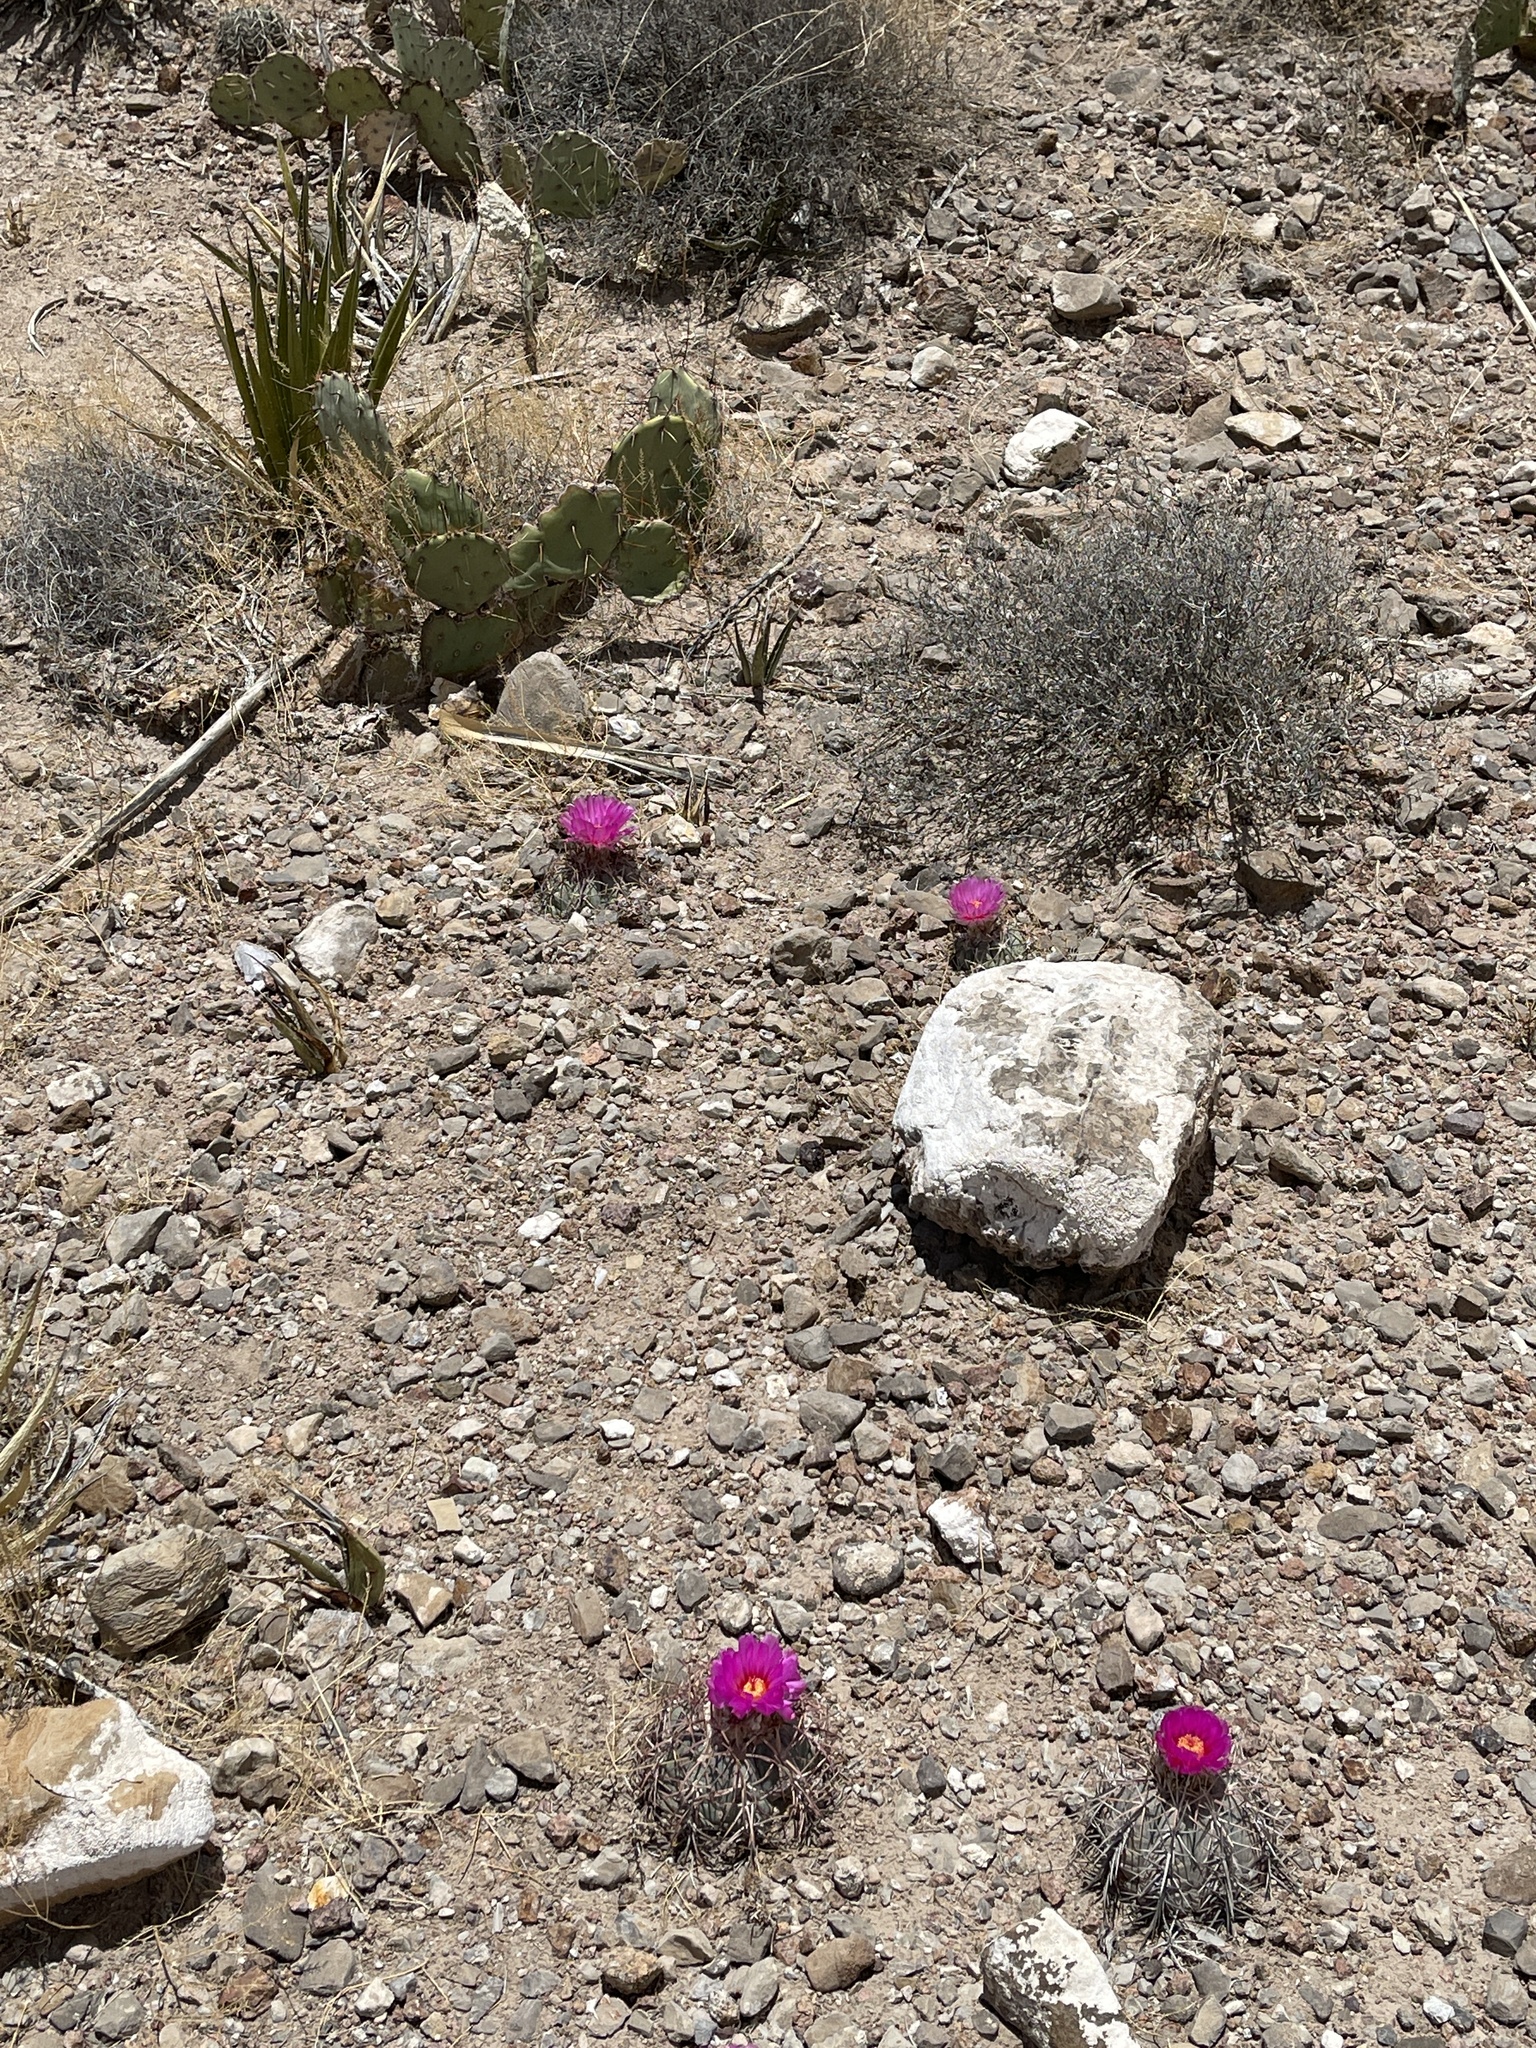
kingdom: Plantae
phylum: Tracheophyta
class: Magnoliopsida
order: Caryophyllales
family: Cactaceae
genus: Echinocactus
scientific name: Echinocactus horizonthalonius
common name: Devilshead
